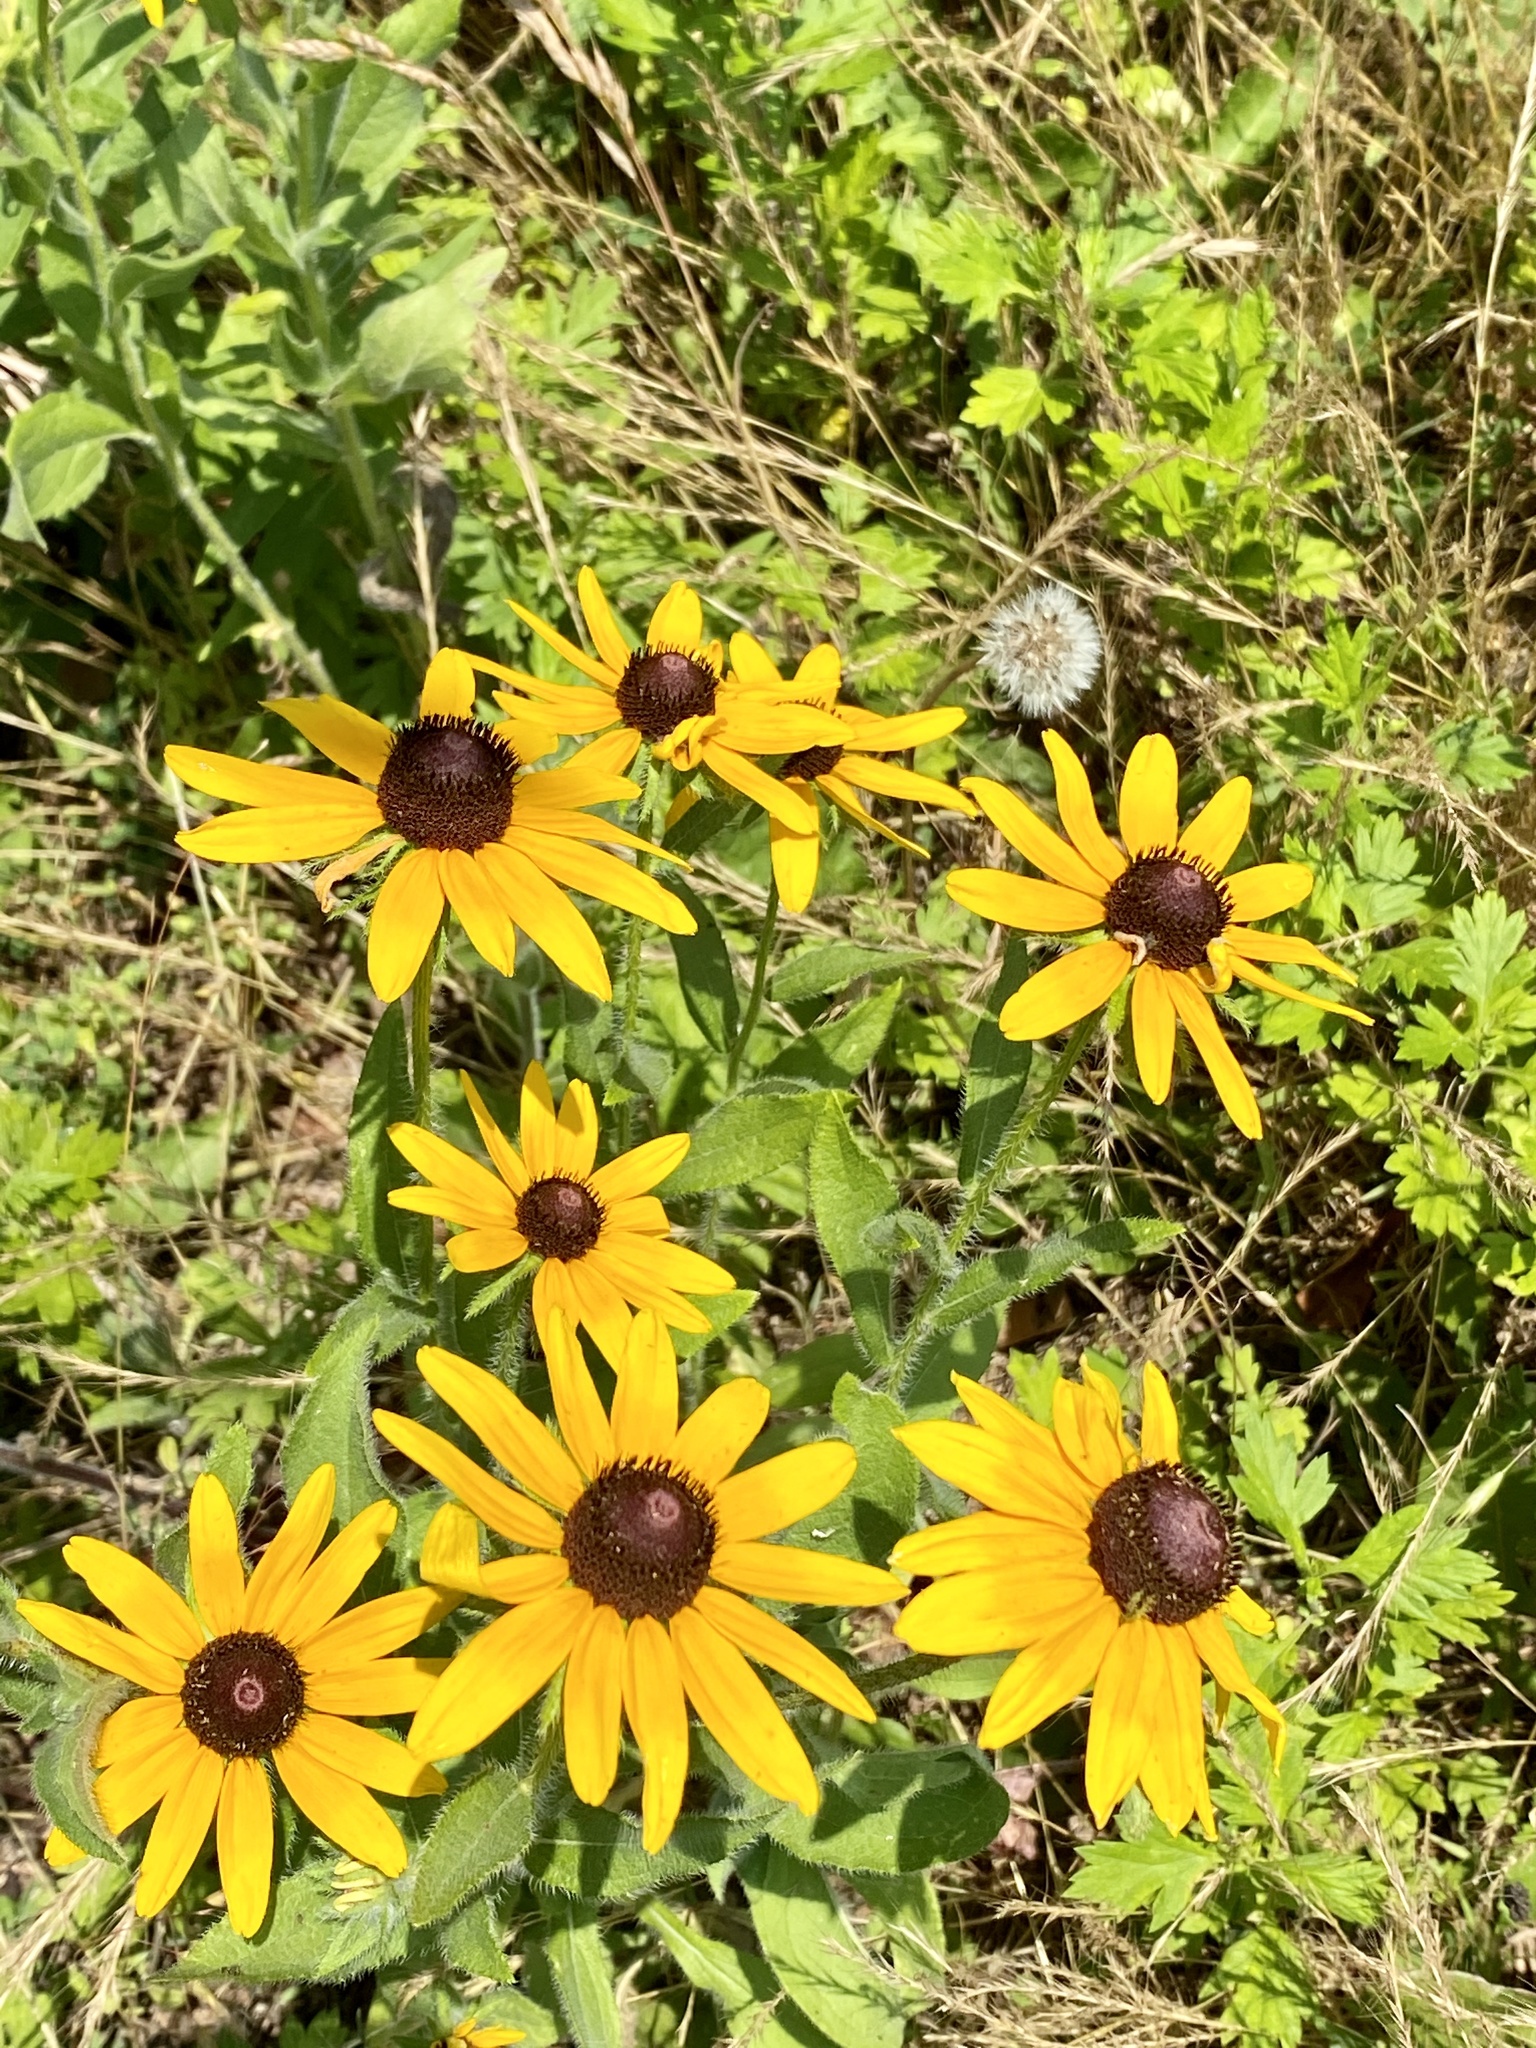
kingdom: Plantae
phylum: Tracheophyta
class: Magnoliopsida
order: Asterales
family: Asteraceae
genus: Rudbeckia
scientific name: Rudbeckia hirta
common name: Black-eyed-susan
